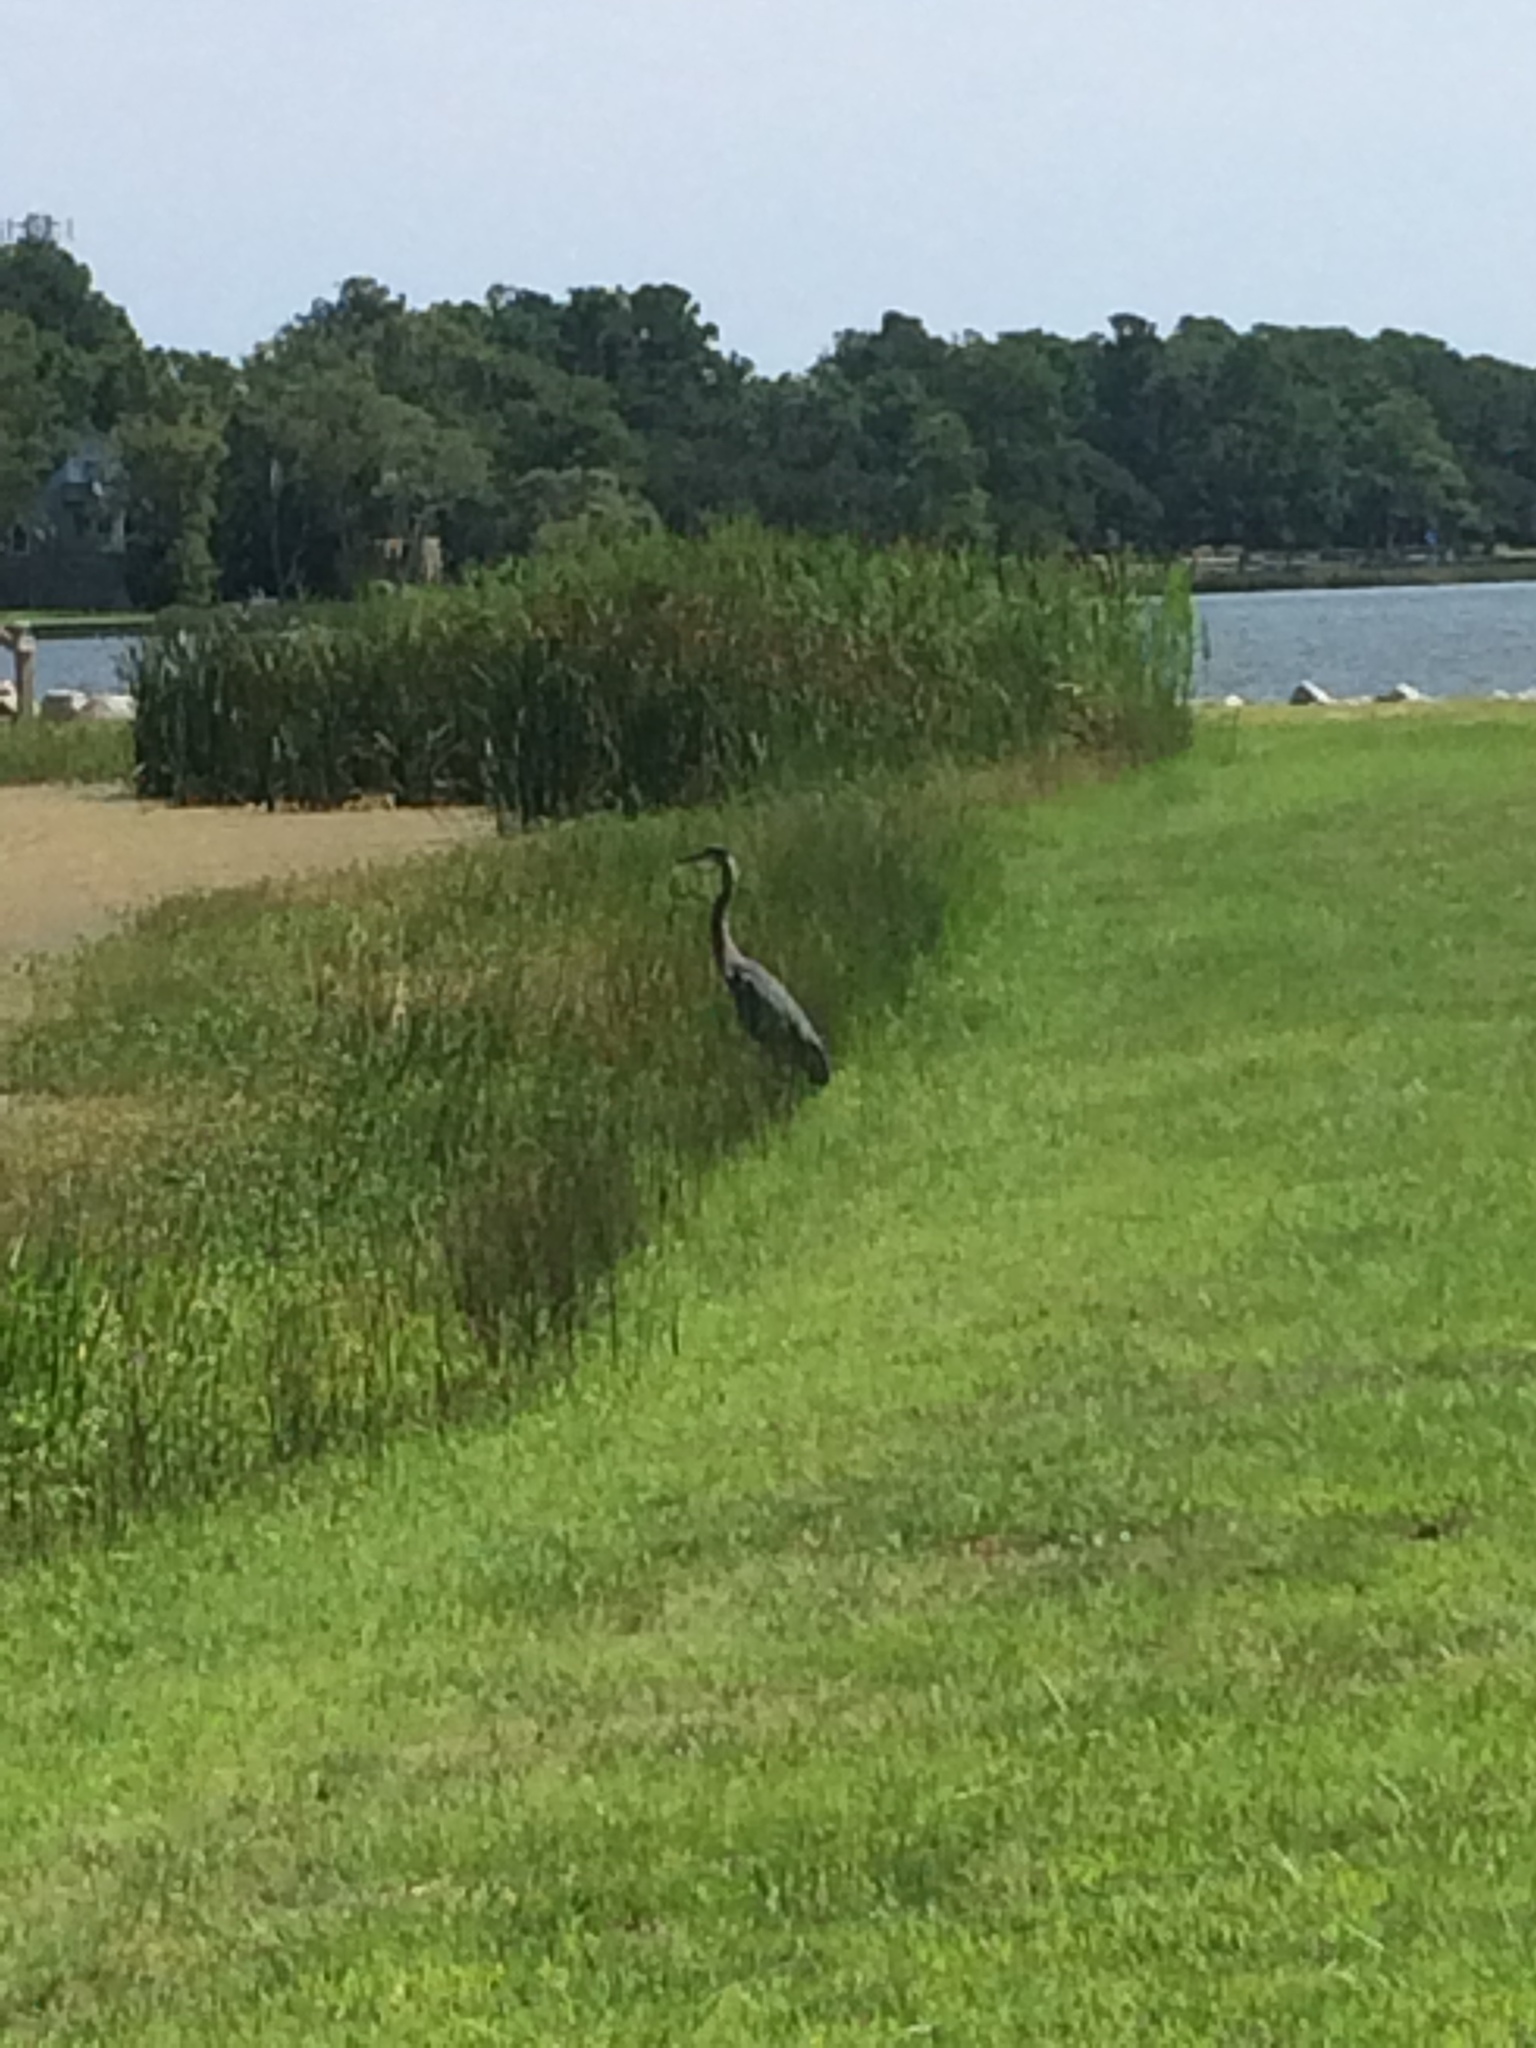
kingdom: Animalia
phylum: Chordata
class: Aves
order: Pelecaniformes
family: Ardeidae
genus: Ardea
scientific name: Ardea herodias
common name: Great blue heron
